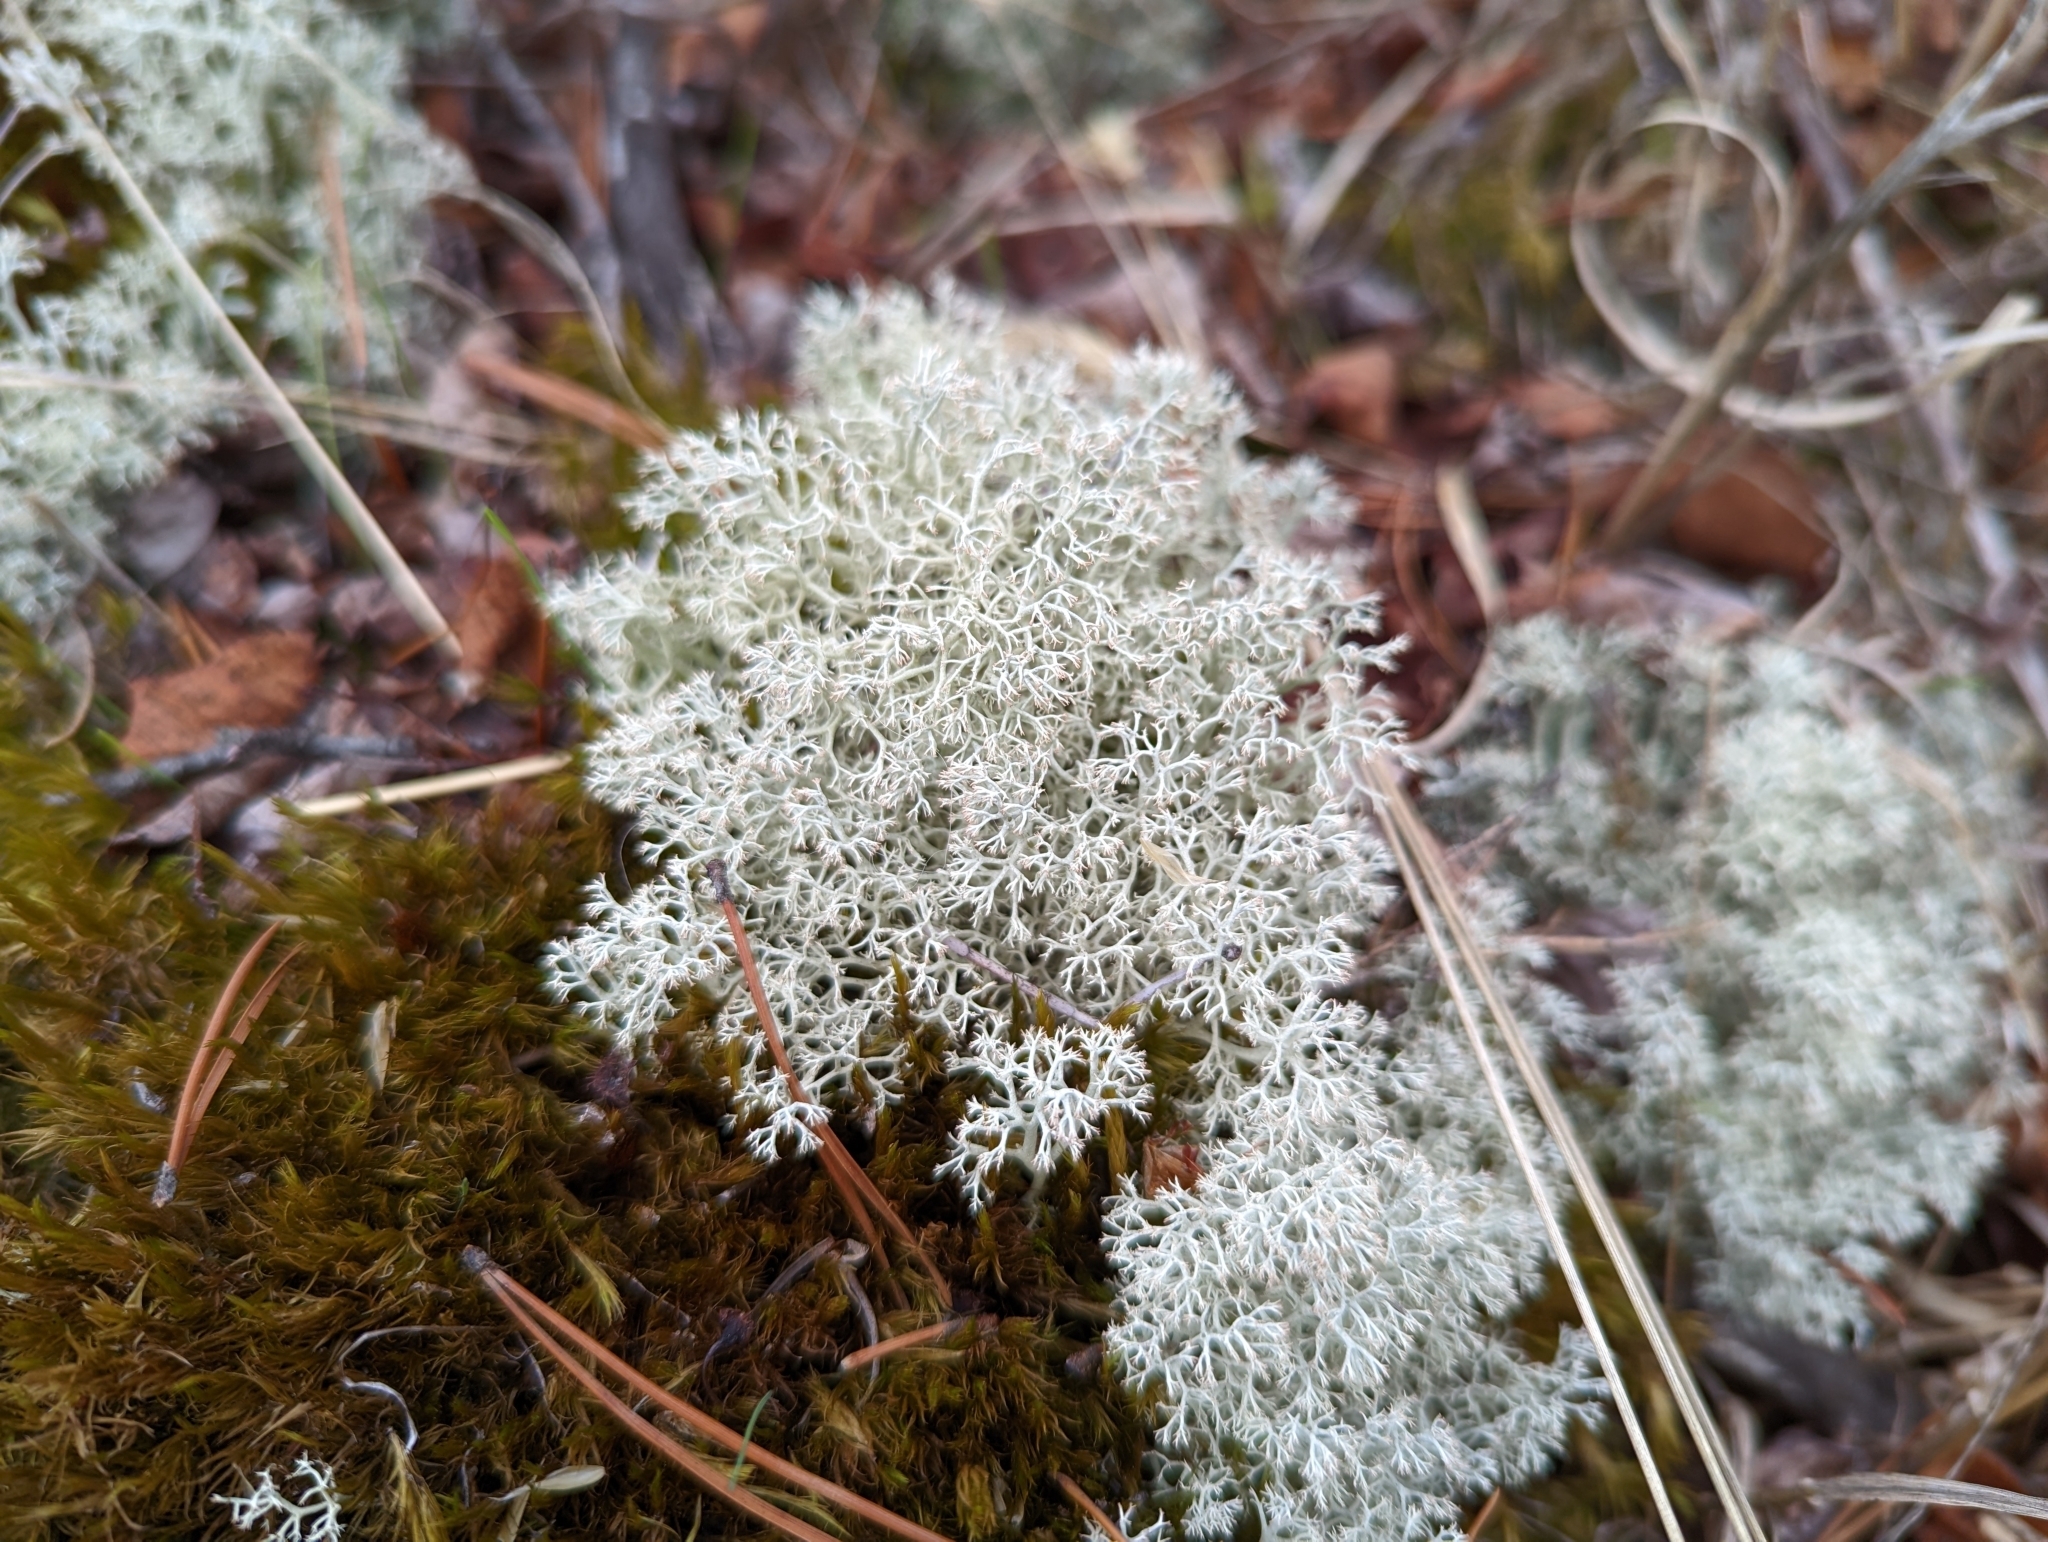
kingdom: Fungi
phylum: Ascomycota
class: Lecanoromycetes
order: Lecanorales
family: Cladoniaceae
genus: Cladonia
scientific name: Cladonia rangiferina
